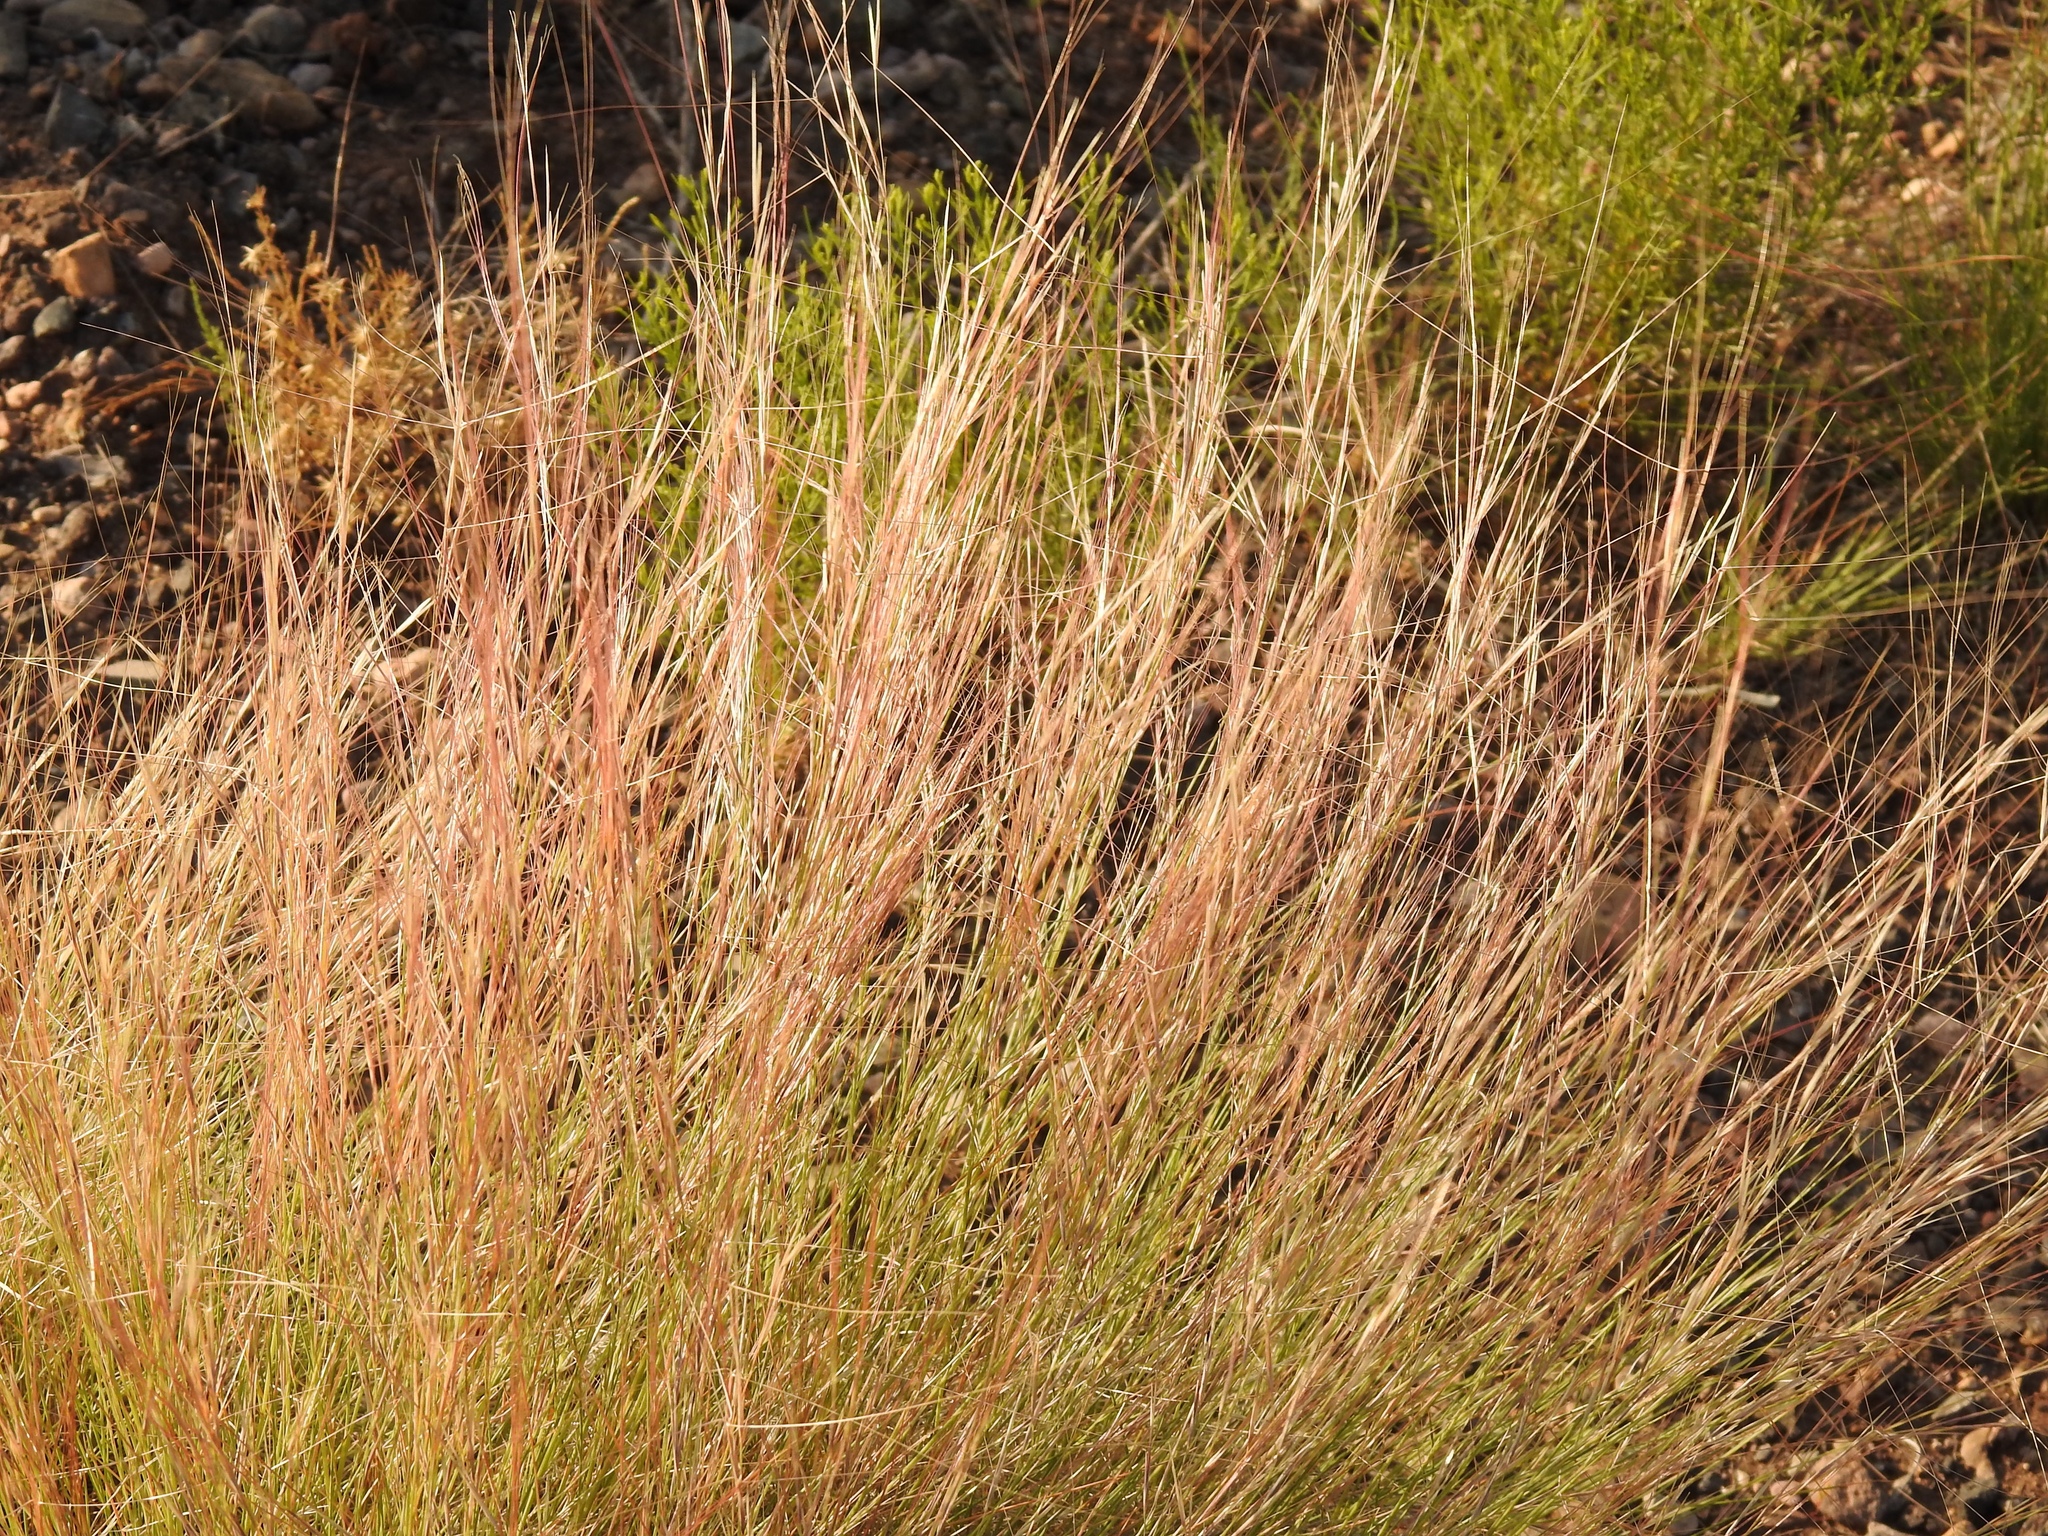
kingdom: Plantae
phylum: Tracheophyta
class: Liliopsida
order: Poales
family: Poaceae
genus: Aristida
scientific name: Aristida purpurea
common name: Purple threeawn
